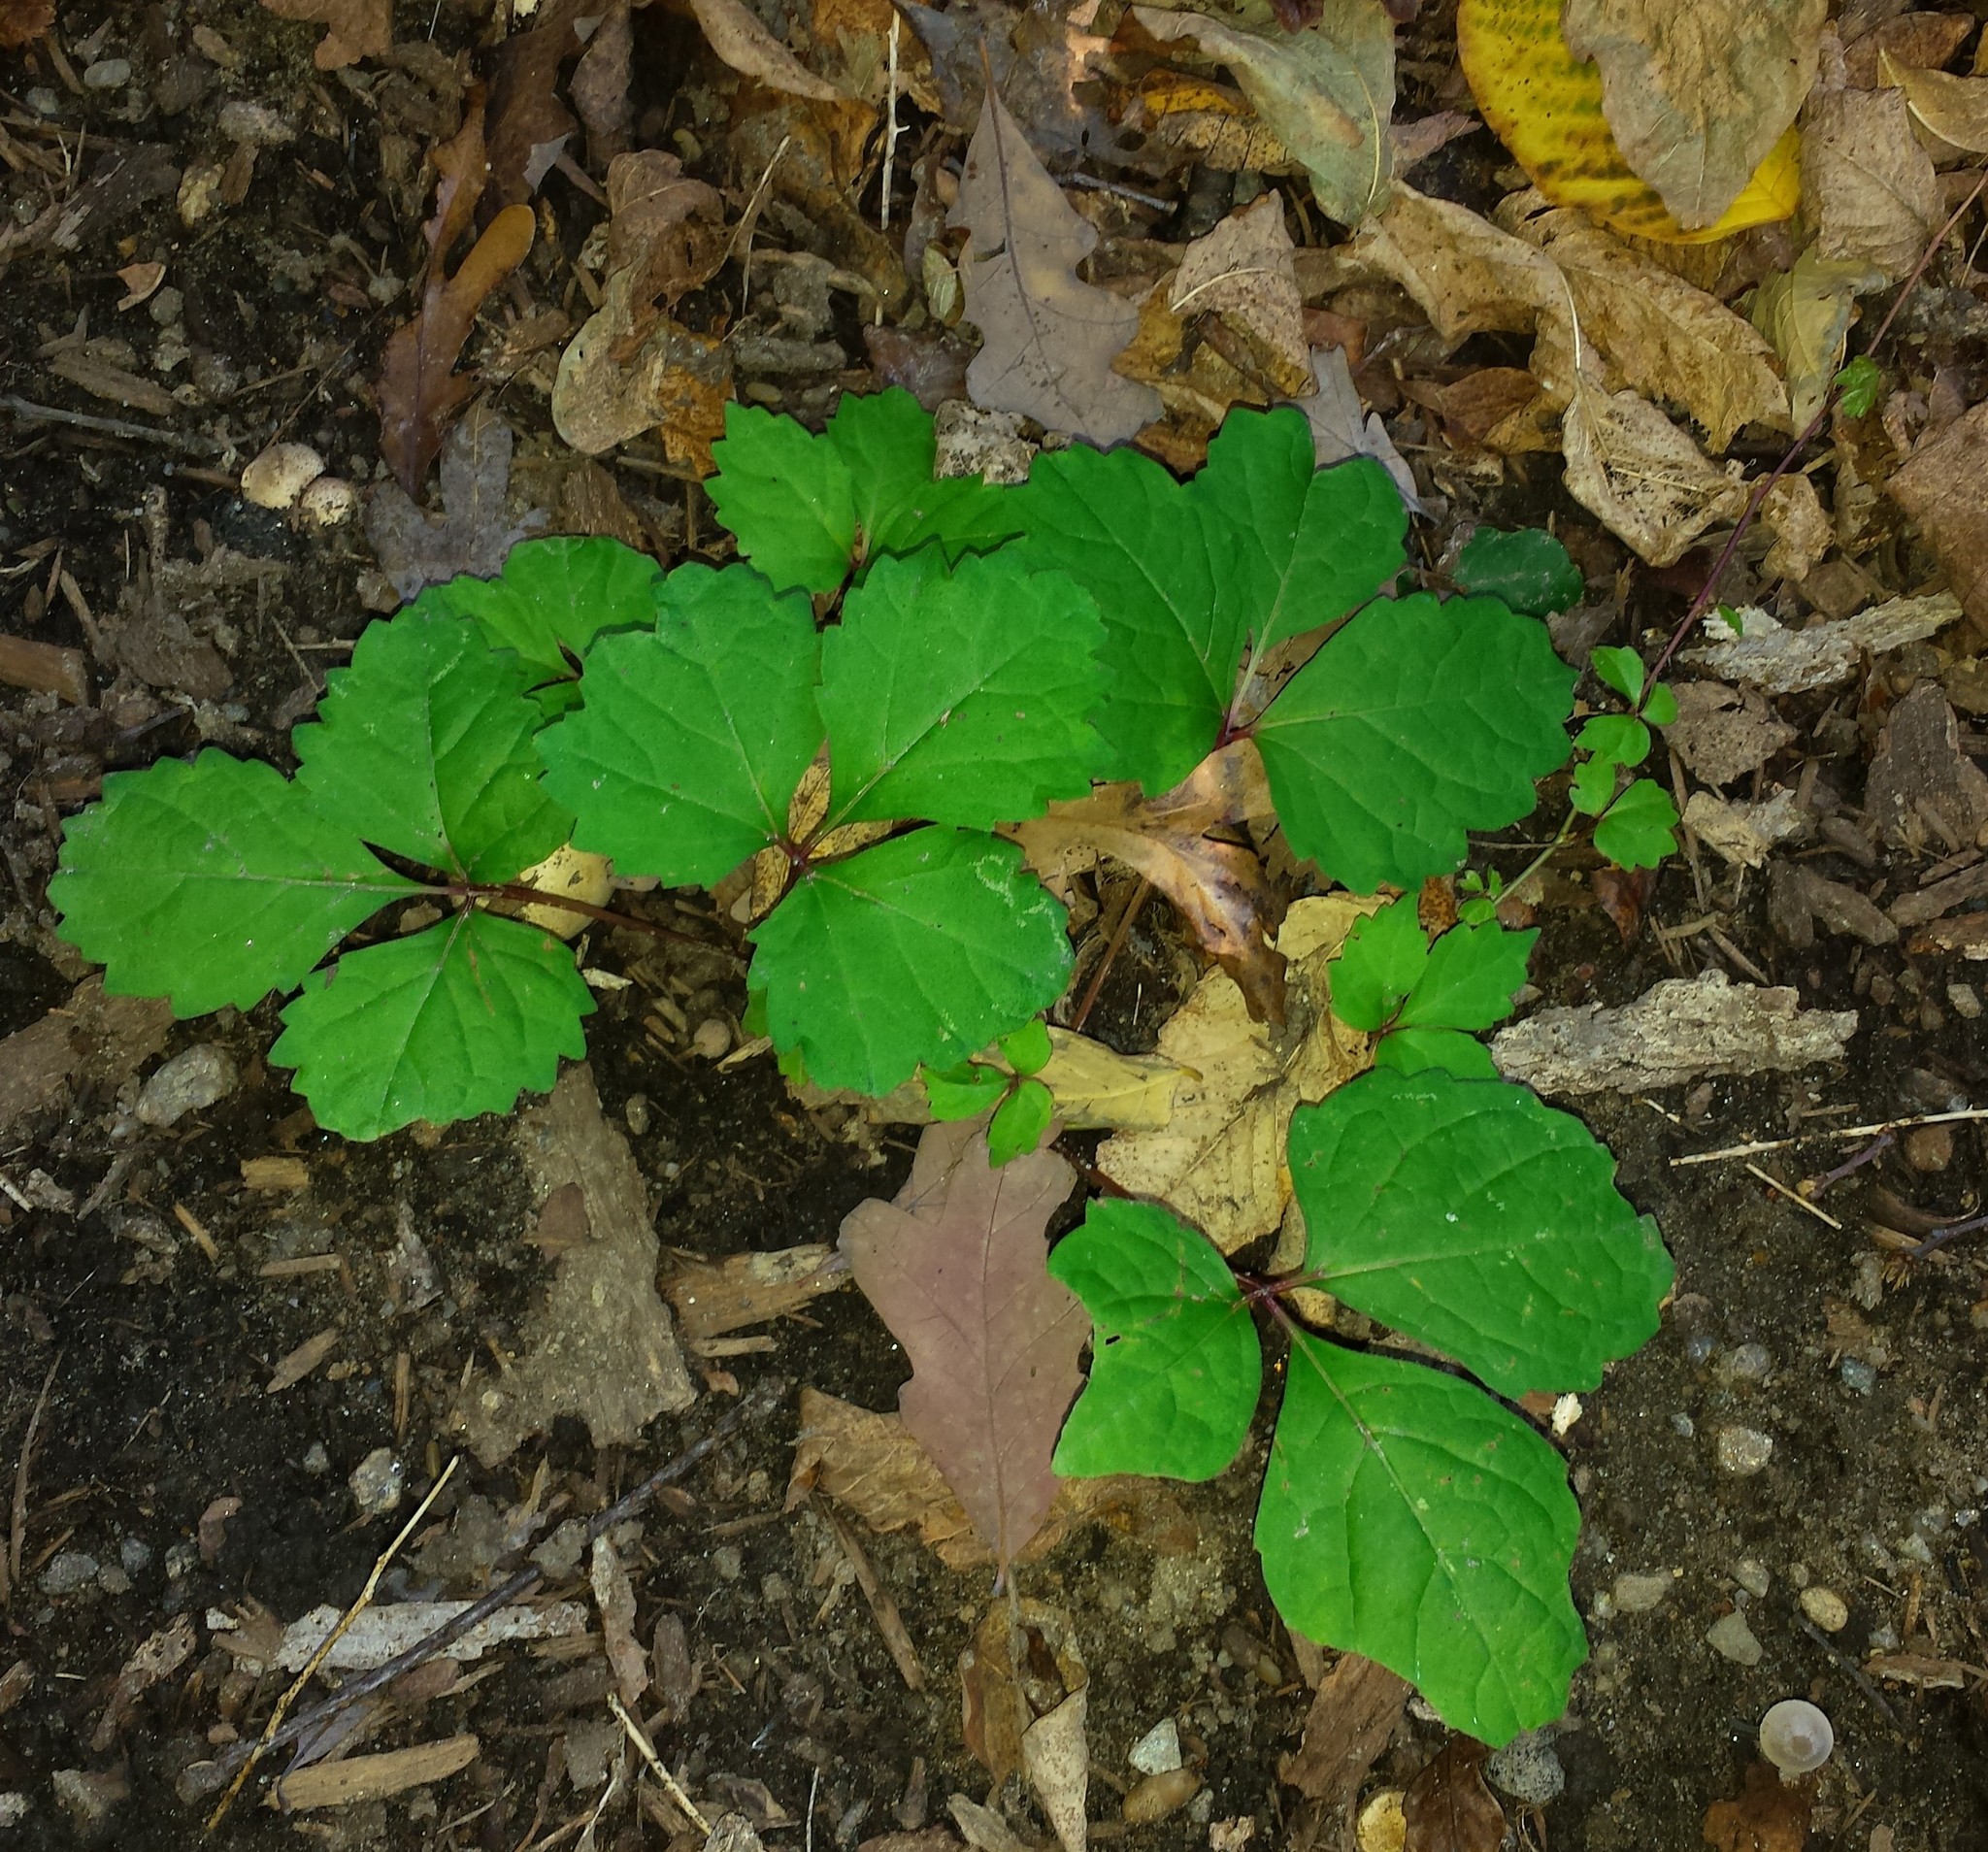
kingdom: Plantae
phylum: Tracheophyta
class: Magnoliopsida
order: Vitales
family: Vitaceae
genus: Parthenocissus
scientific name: Parthenocissus tricuspidata
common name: Boston ivy
